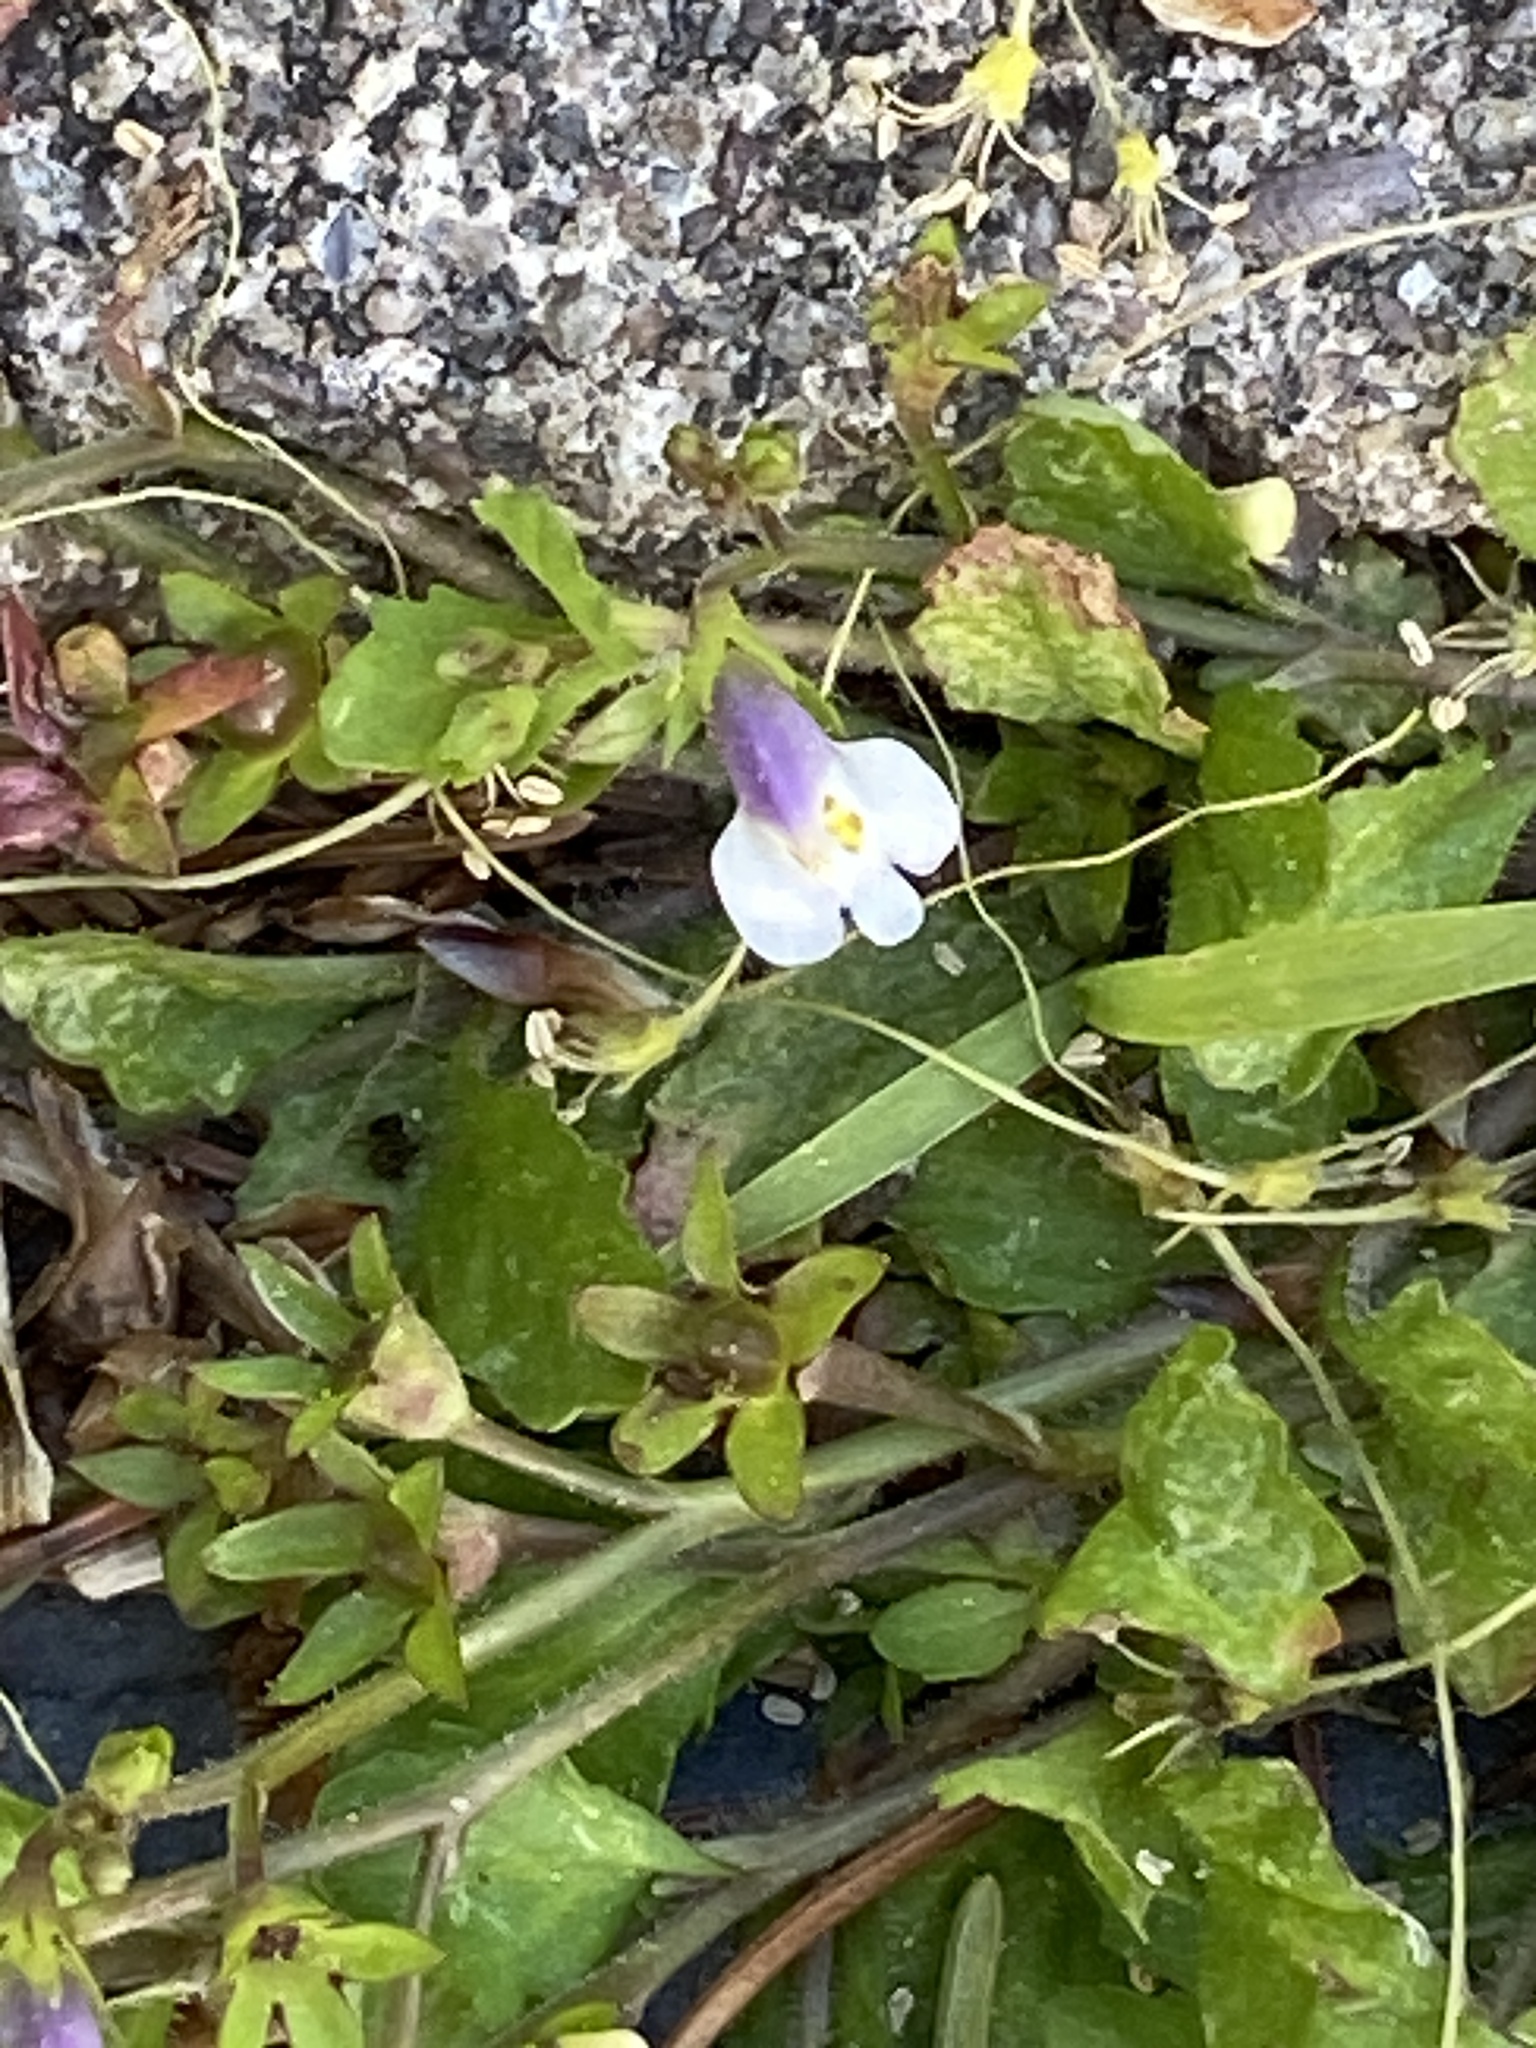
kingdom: Plantae
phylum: Tracheophyta
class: Magnoliopsida
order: Lamiales
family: Mazaceae
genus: Mazus
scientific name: Mazus pumilus
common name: Japanese mazus
